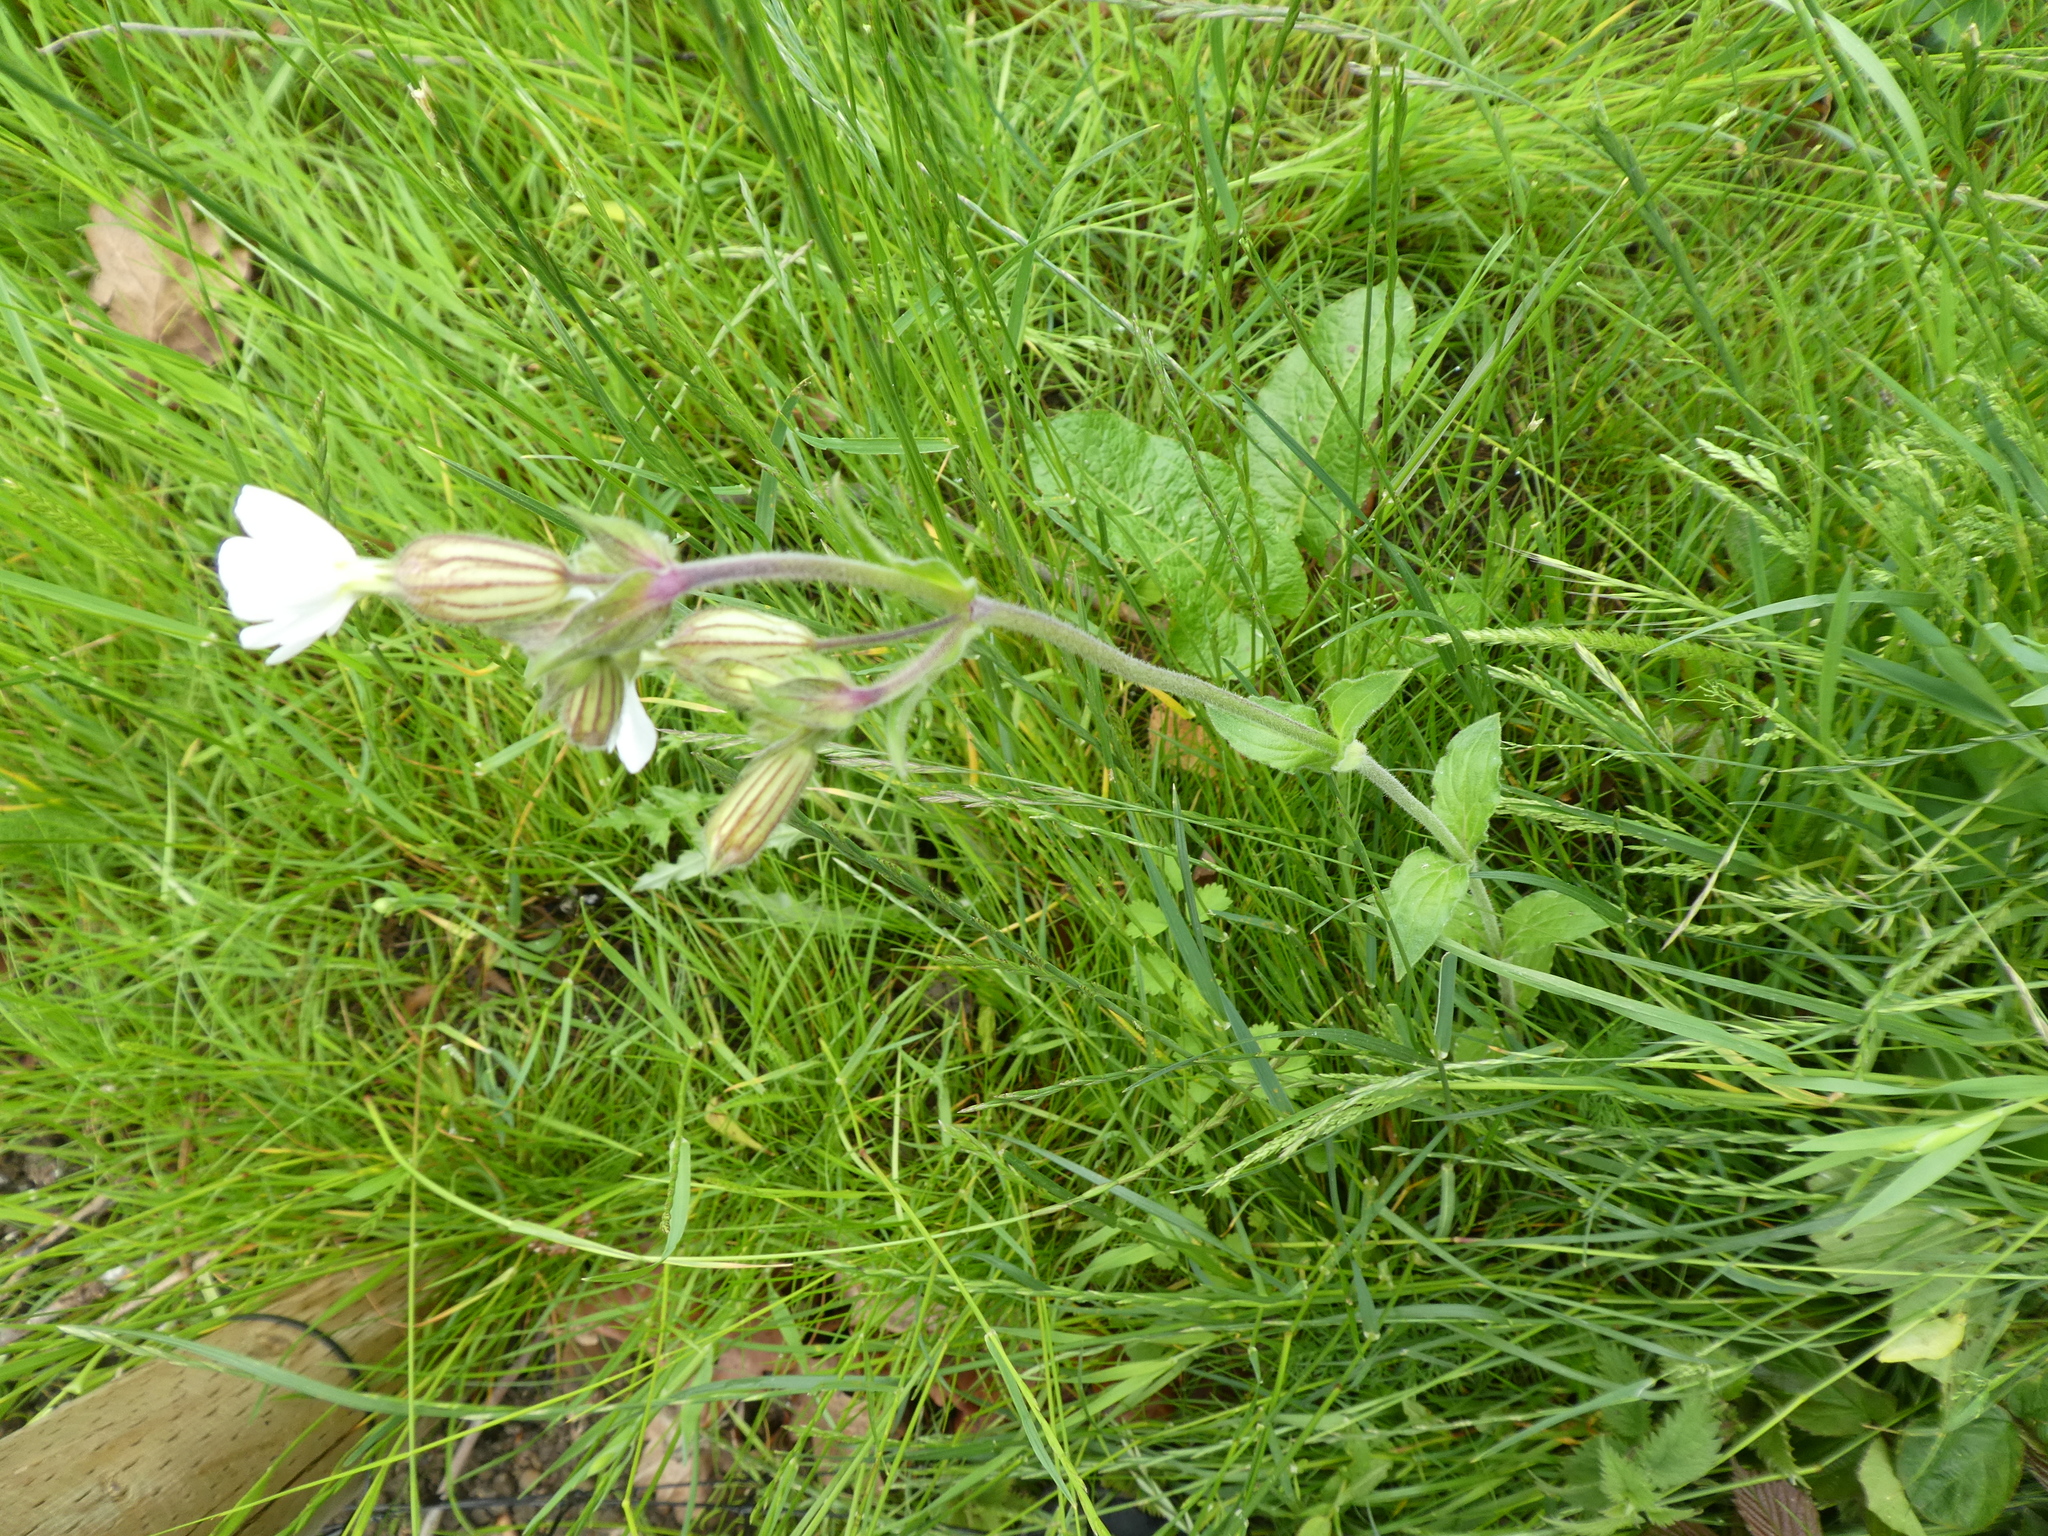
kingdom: Plantae
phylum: Tracheophyta
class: Magnoliopsida
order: Caryophyllales
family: Caryophyllaceae
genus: Silene
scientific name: Silene latifolia
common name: White campion
